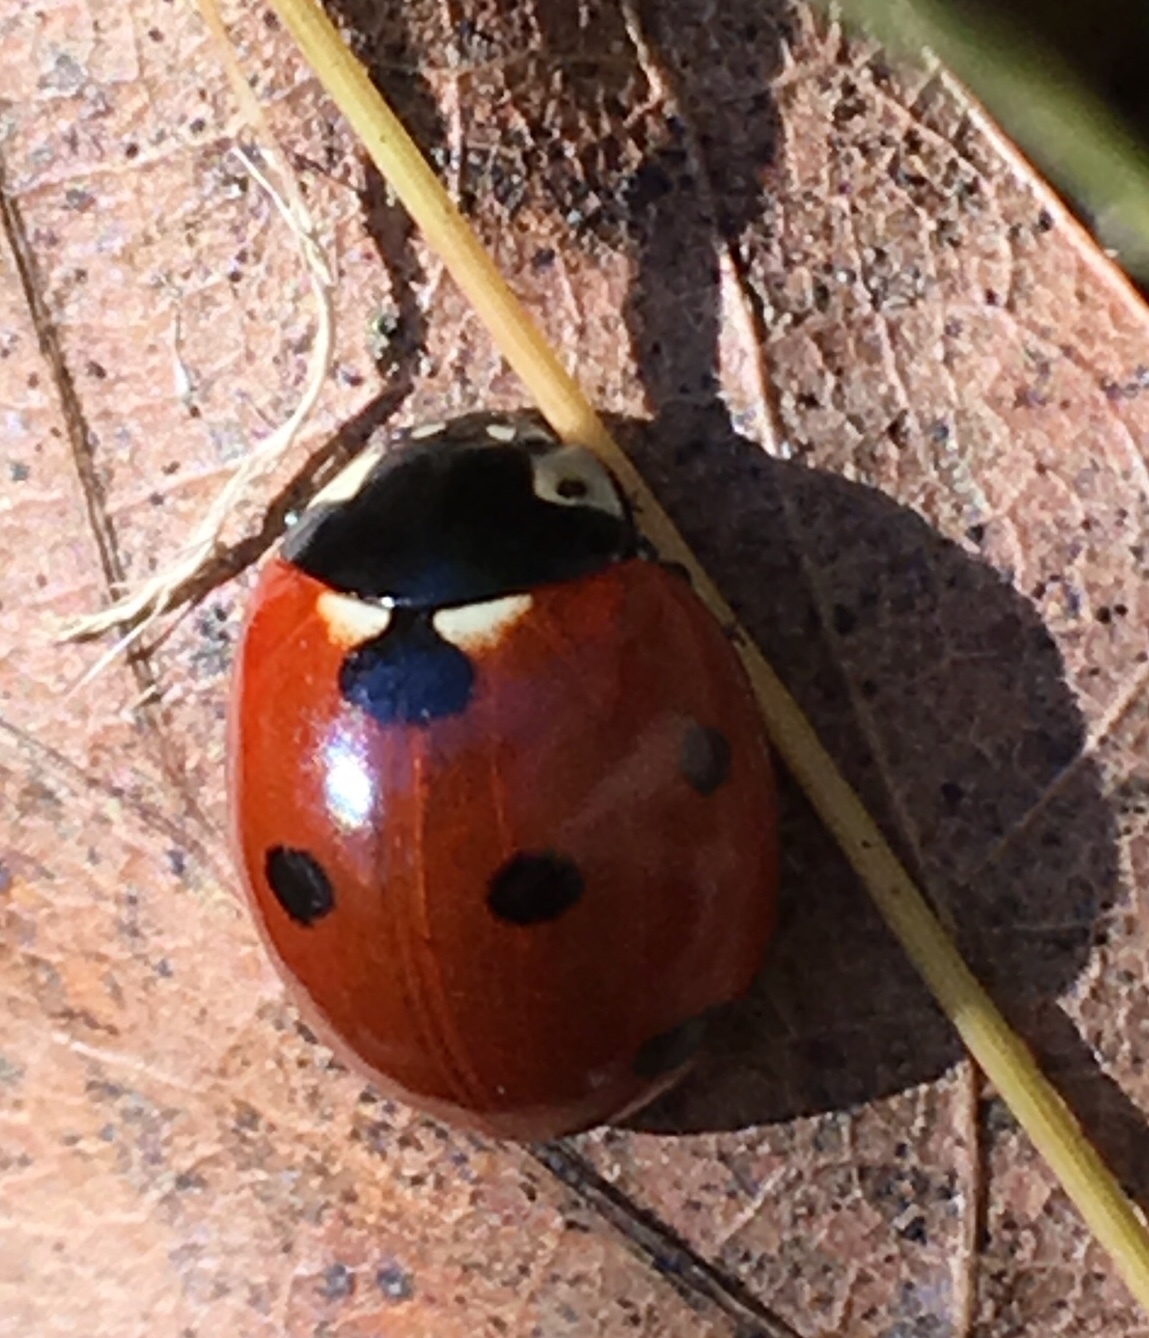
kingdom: Animalia
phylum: Arthropoda
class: Insecta
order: Coleoptera
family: Coccinellidae
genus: Coccinella
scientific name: Coccinella septempunctata
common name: Sevenspotted lady beetle
